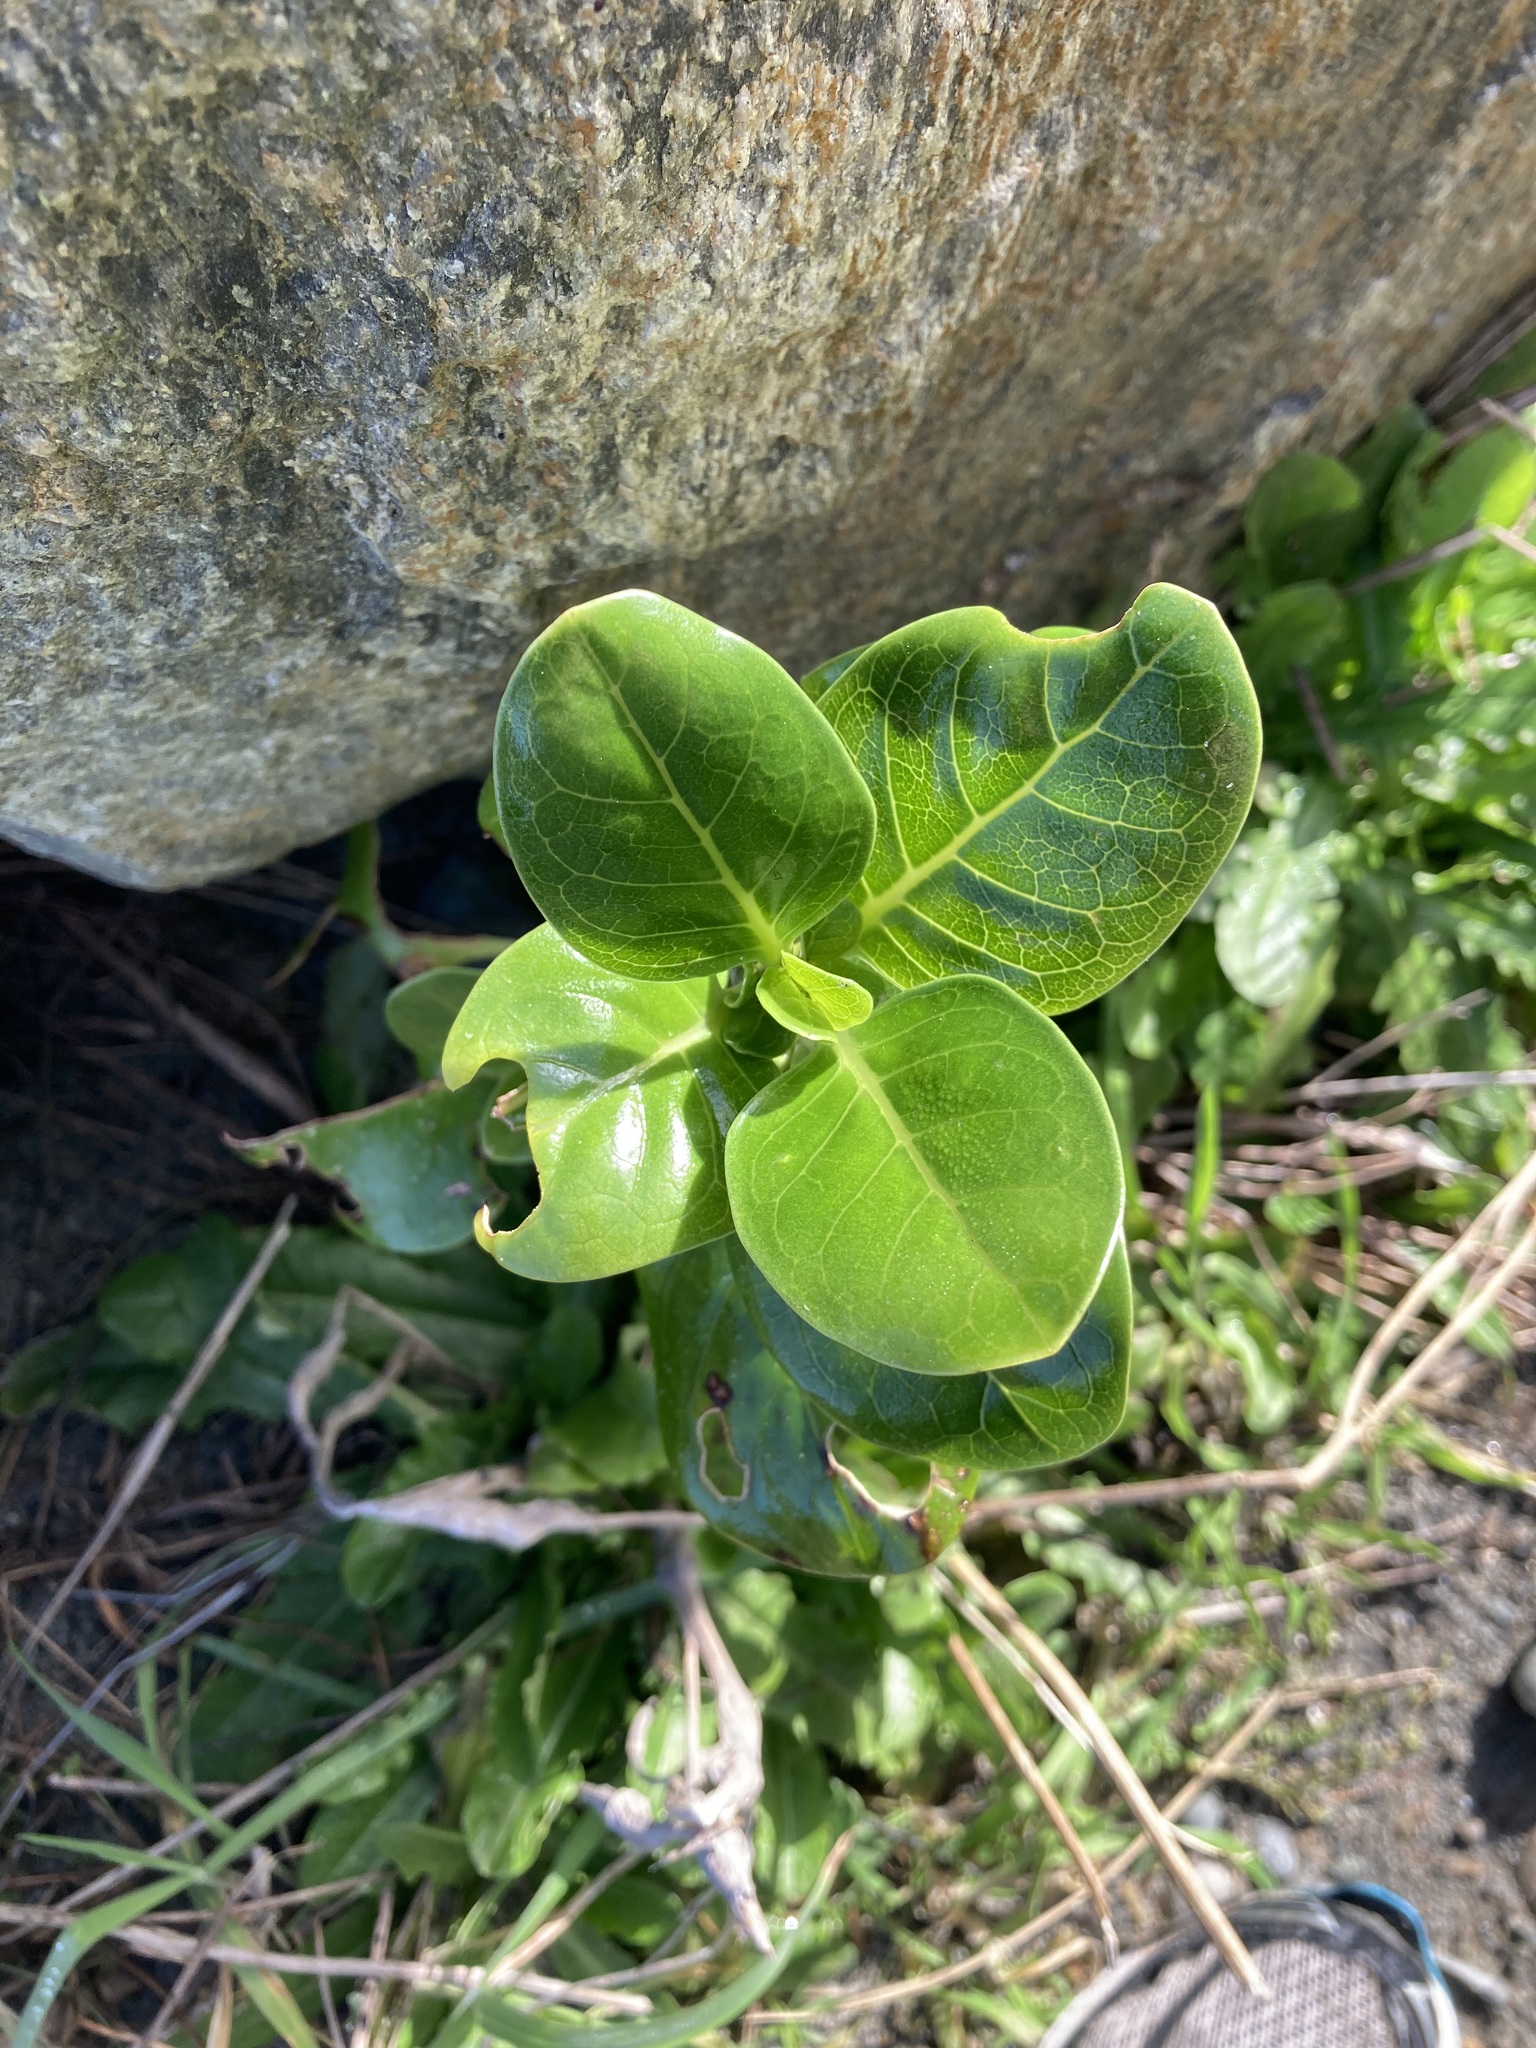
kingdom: Plantae
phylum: Tracheophyta
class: Magnoliopsida
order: Gentianales
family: Rubiaceae
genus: Coprosma
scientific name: Coprosma repens
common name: Tree bedstraw
